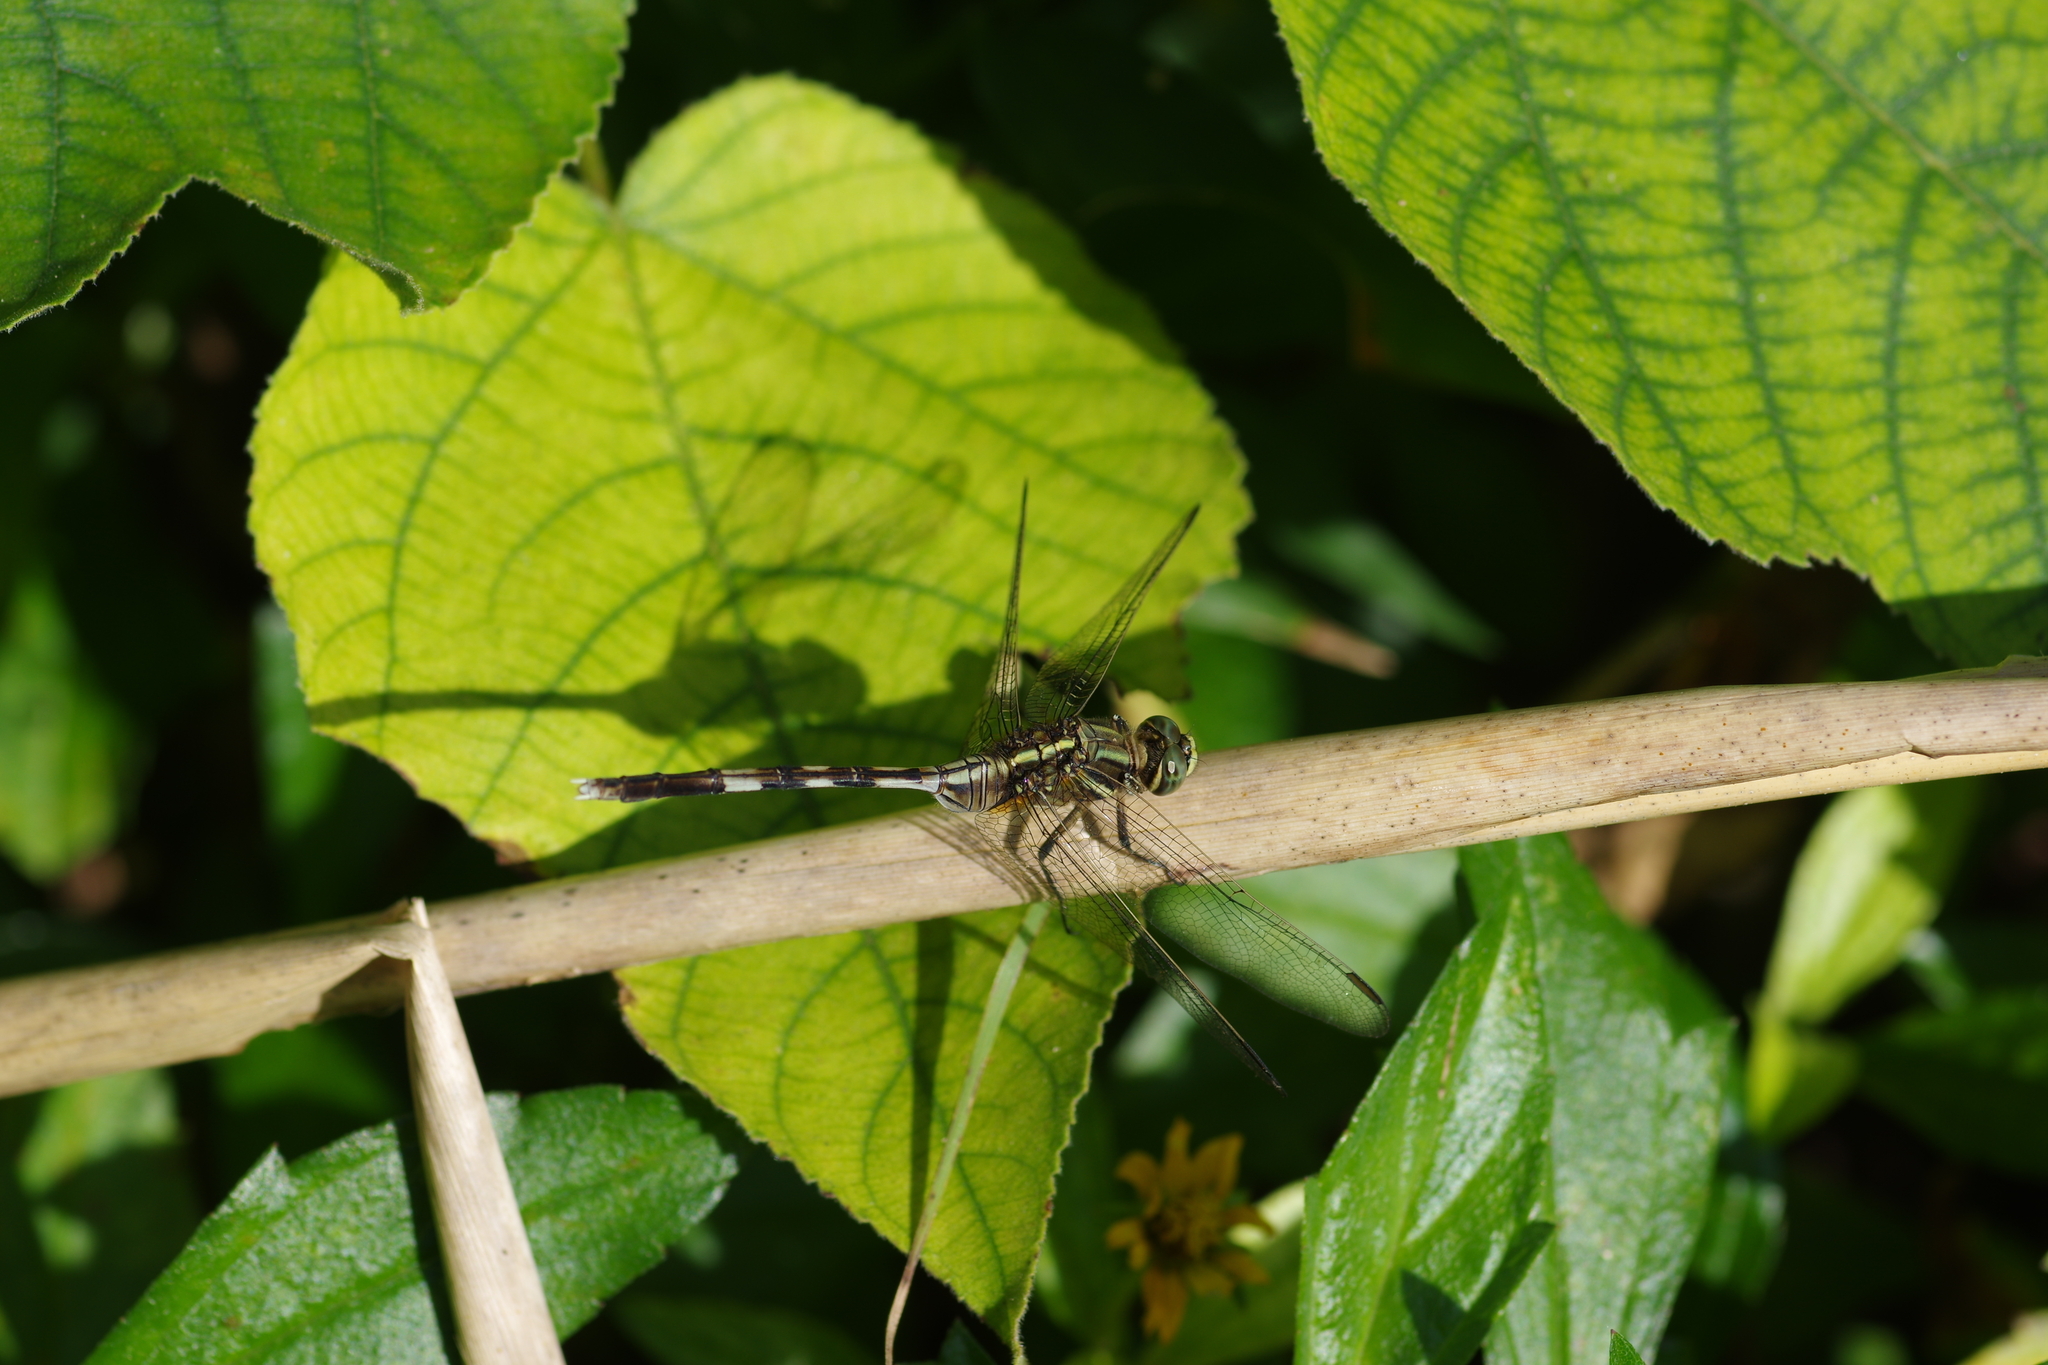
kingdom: Animalia
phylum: Arthropoda
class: Insecta
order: Odonata
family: Libellulidae
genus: Orthetrum
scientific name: Orthetrum sabina
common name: Slender skimmer
